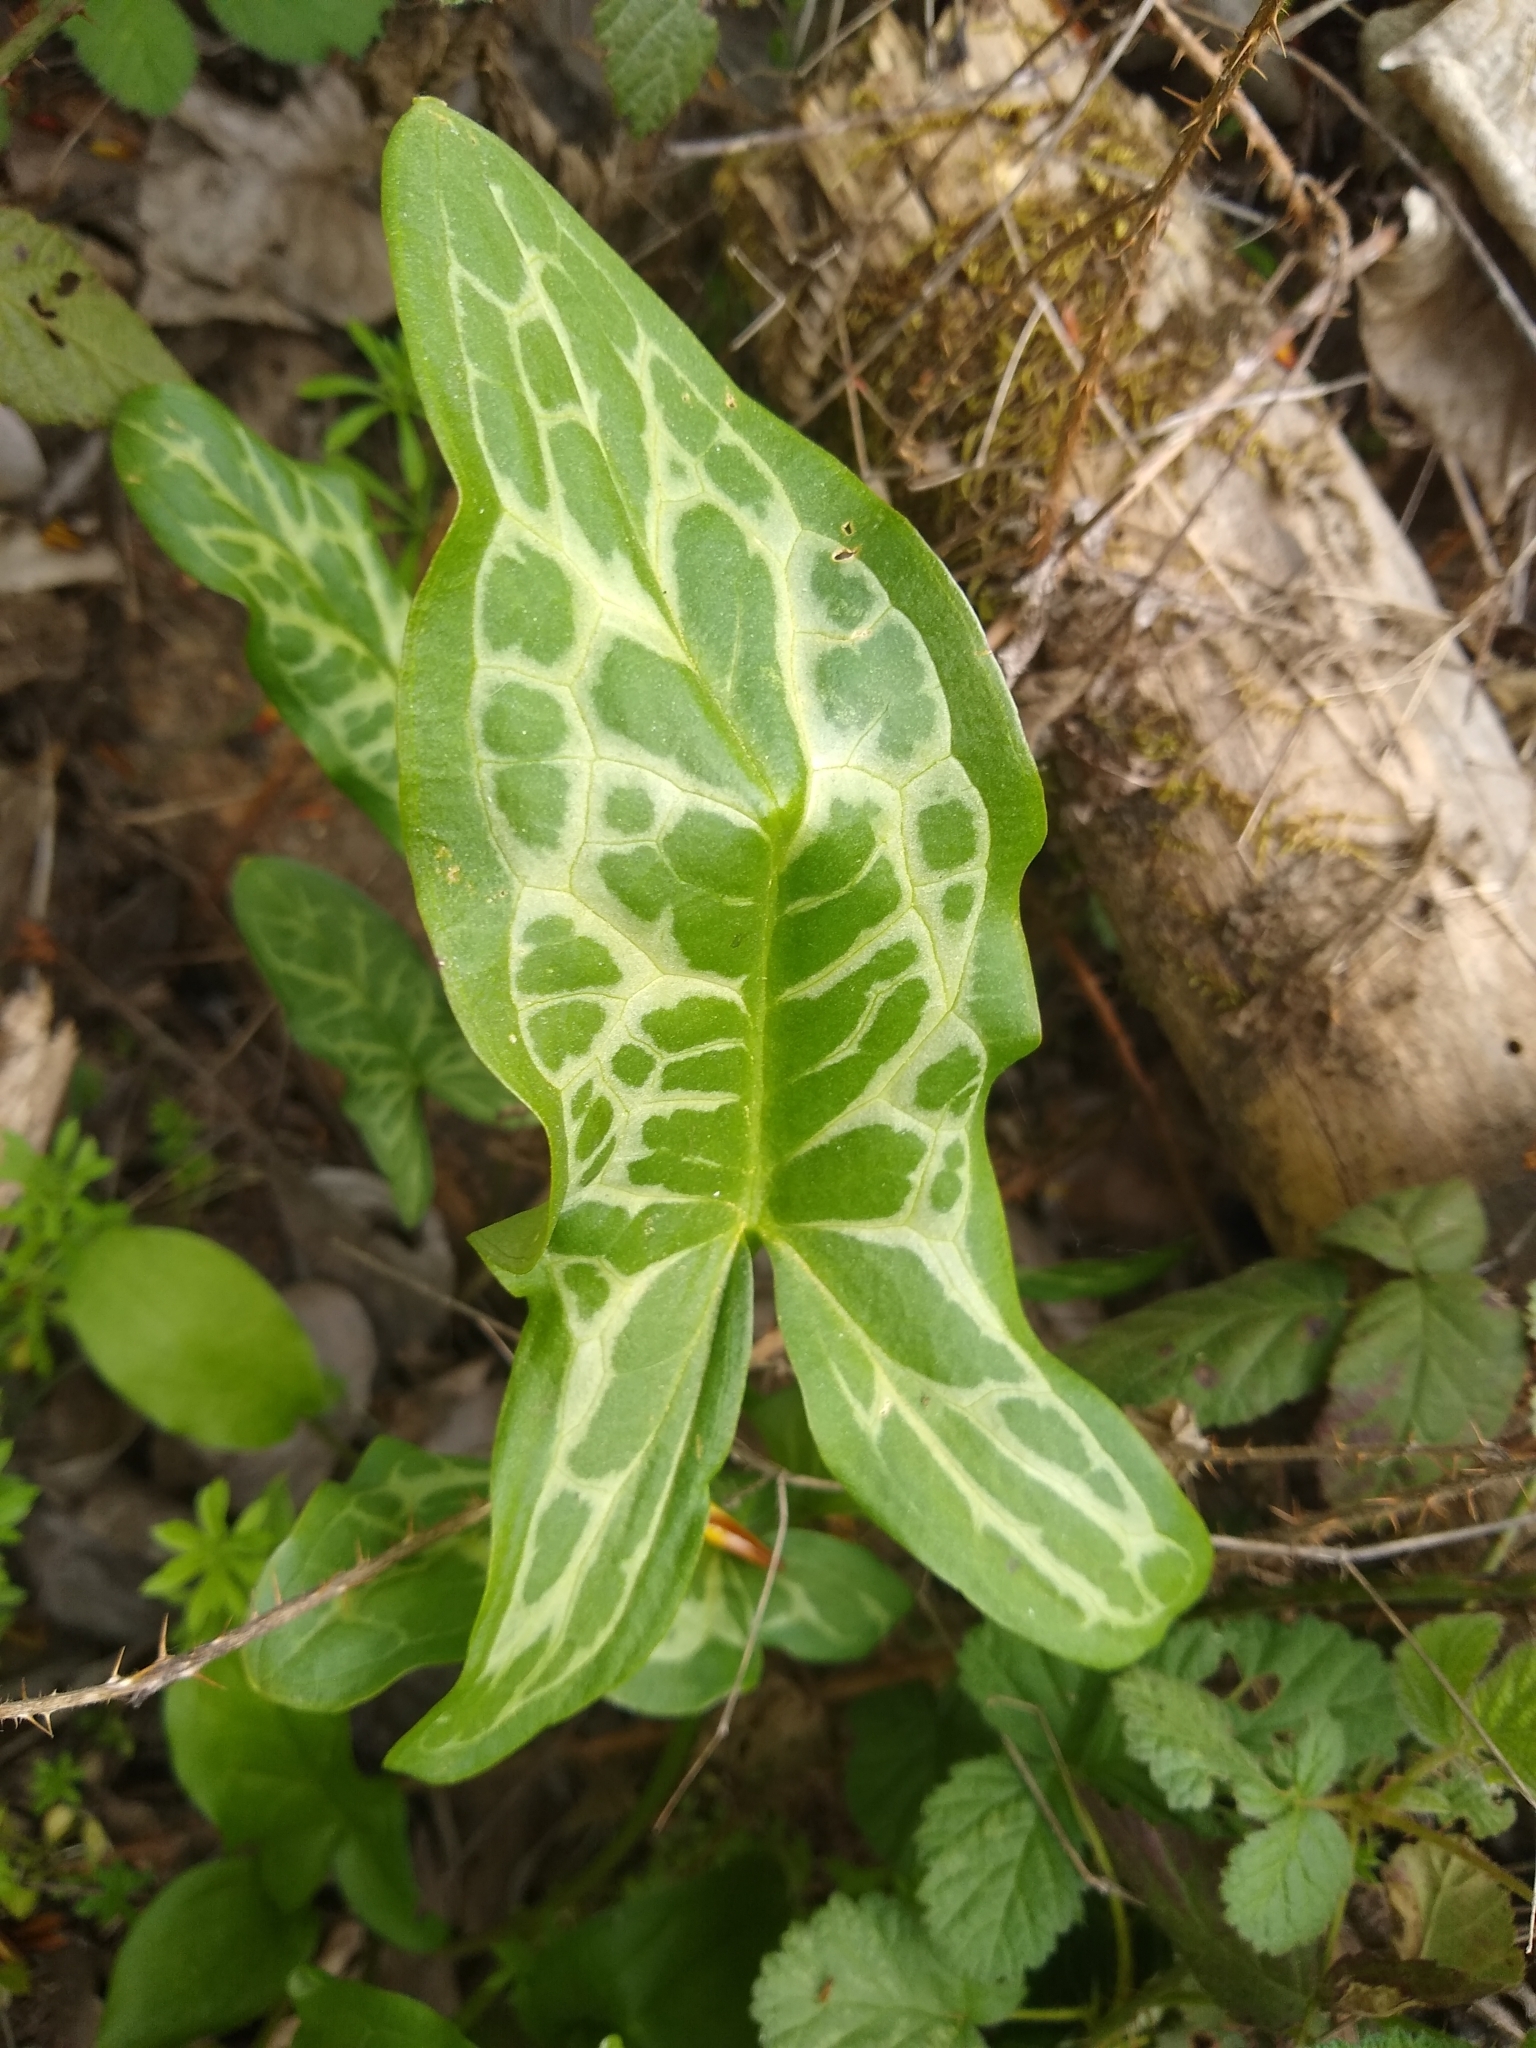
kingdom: Plantae
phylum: Tracheophyta
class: Liliopsida
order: Alismatales
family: Araceae
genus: Arum
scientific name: Arum italicum
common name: Italian lords-and-ladies
